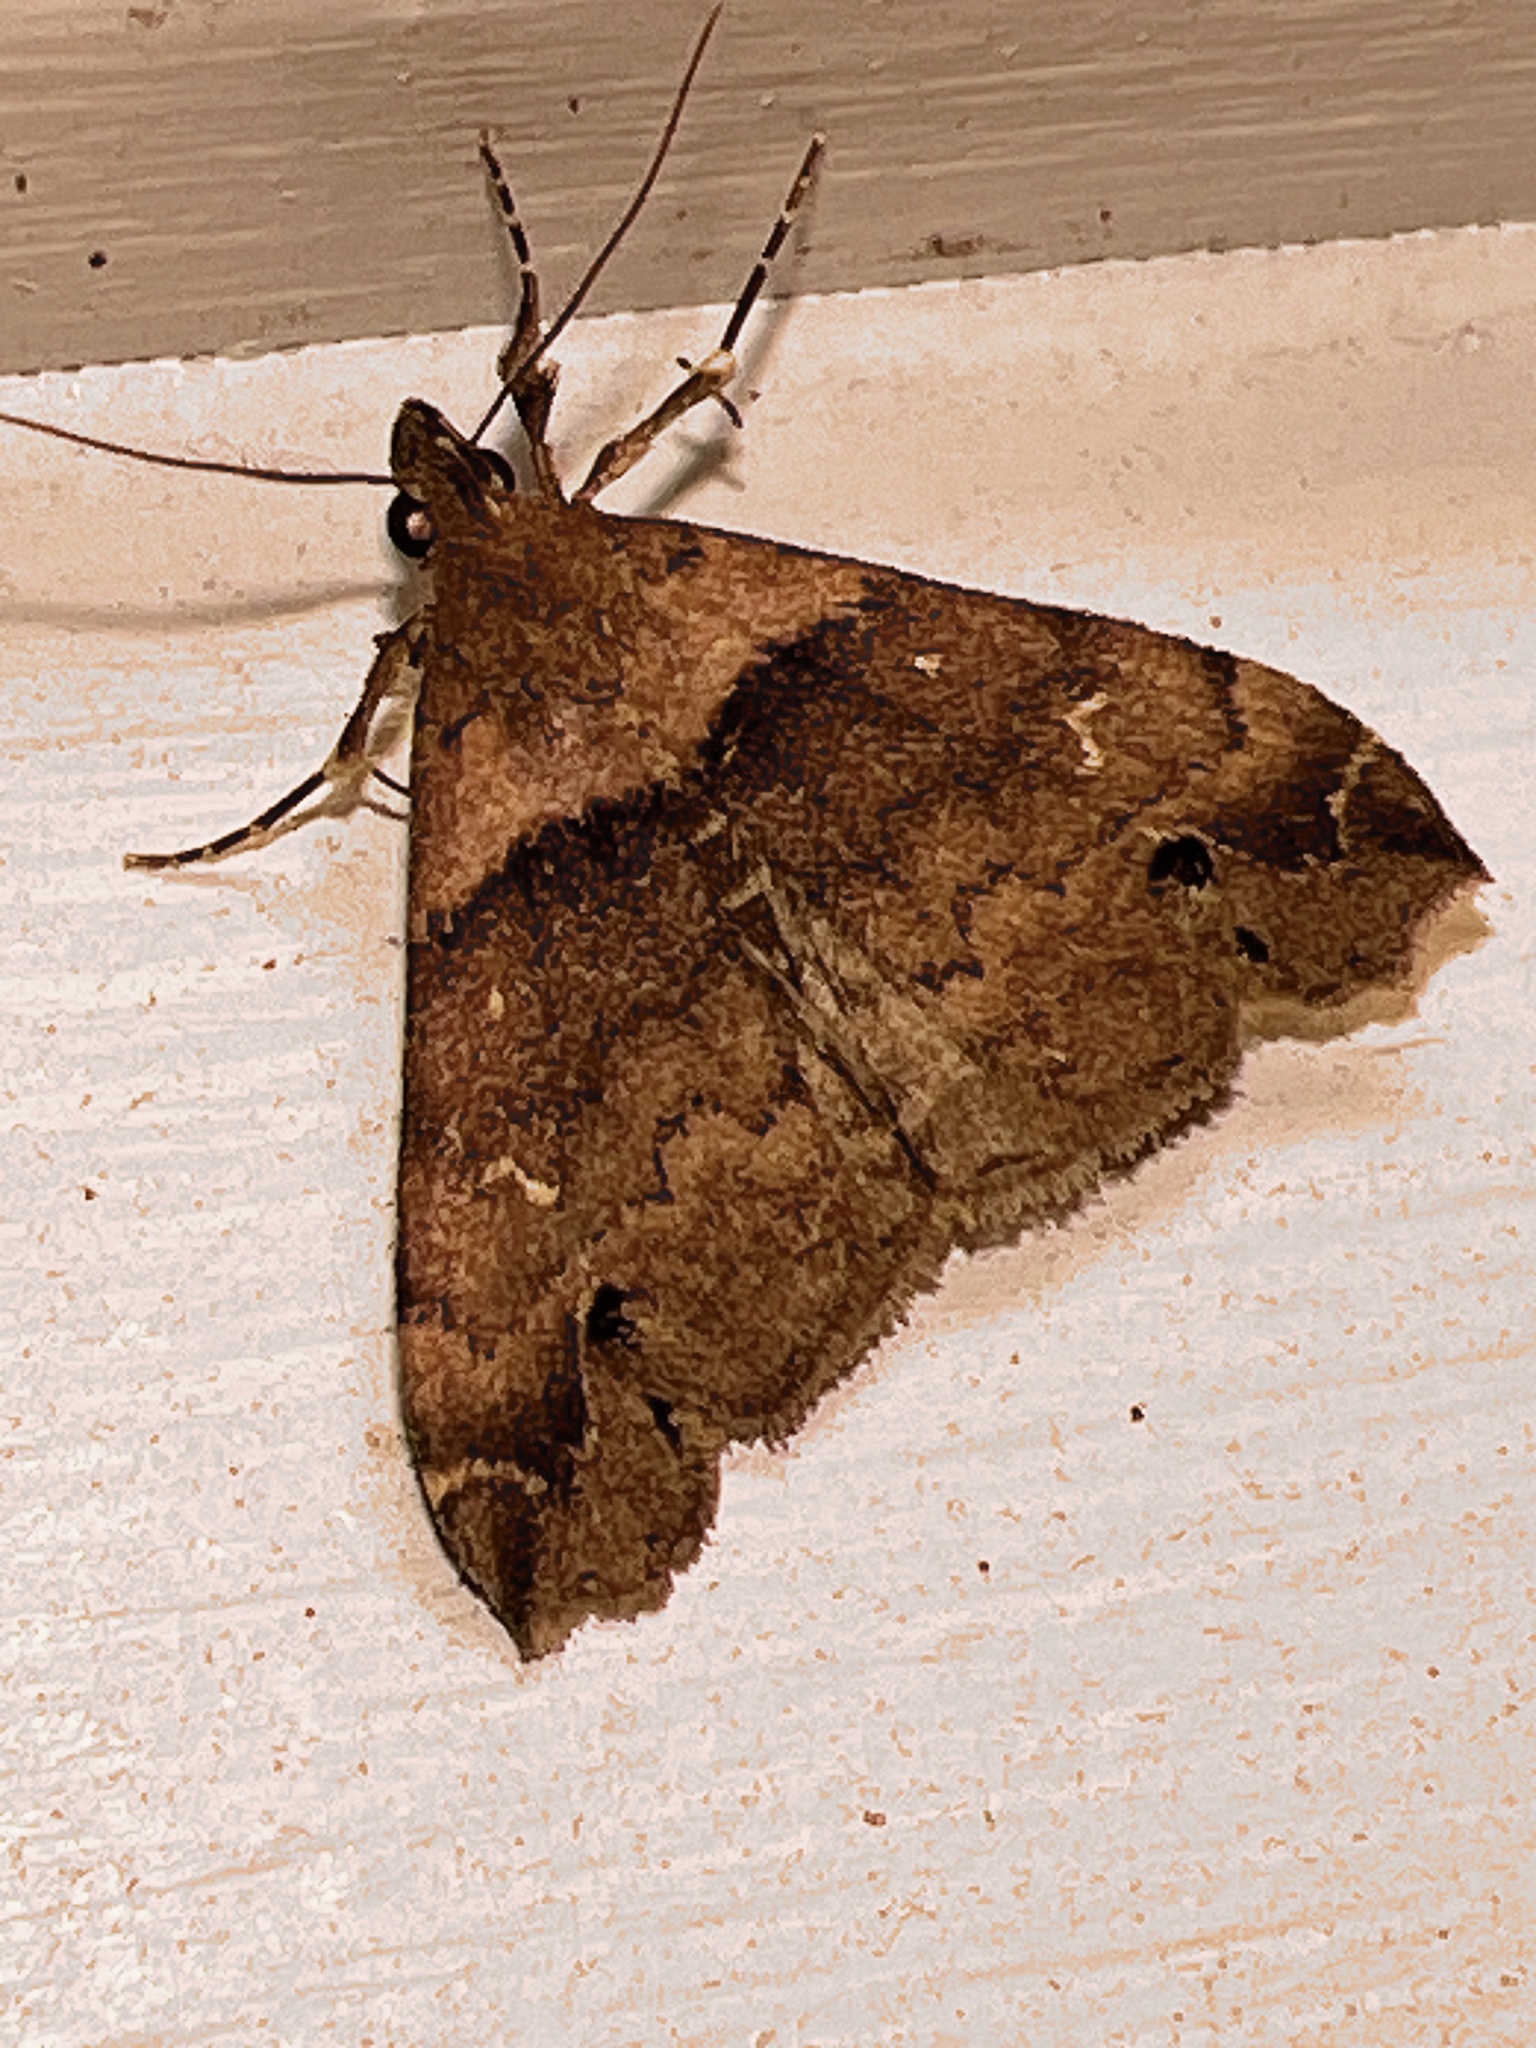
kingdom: Animalia
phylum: Arthropoda
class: Insecta
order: Lepidoptera
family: Erebidae
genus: Lascoria
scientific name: Lascoria ambigualis
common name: Ambiguous moth
